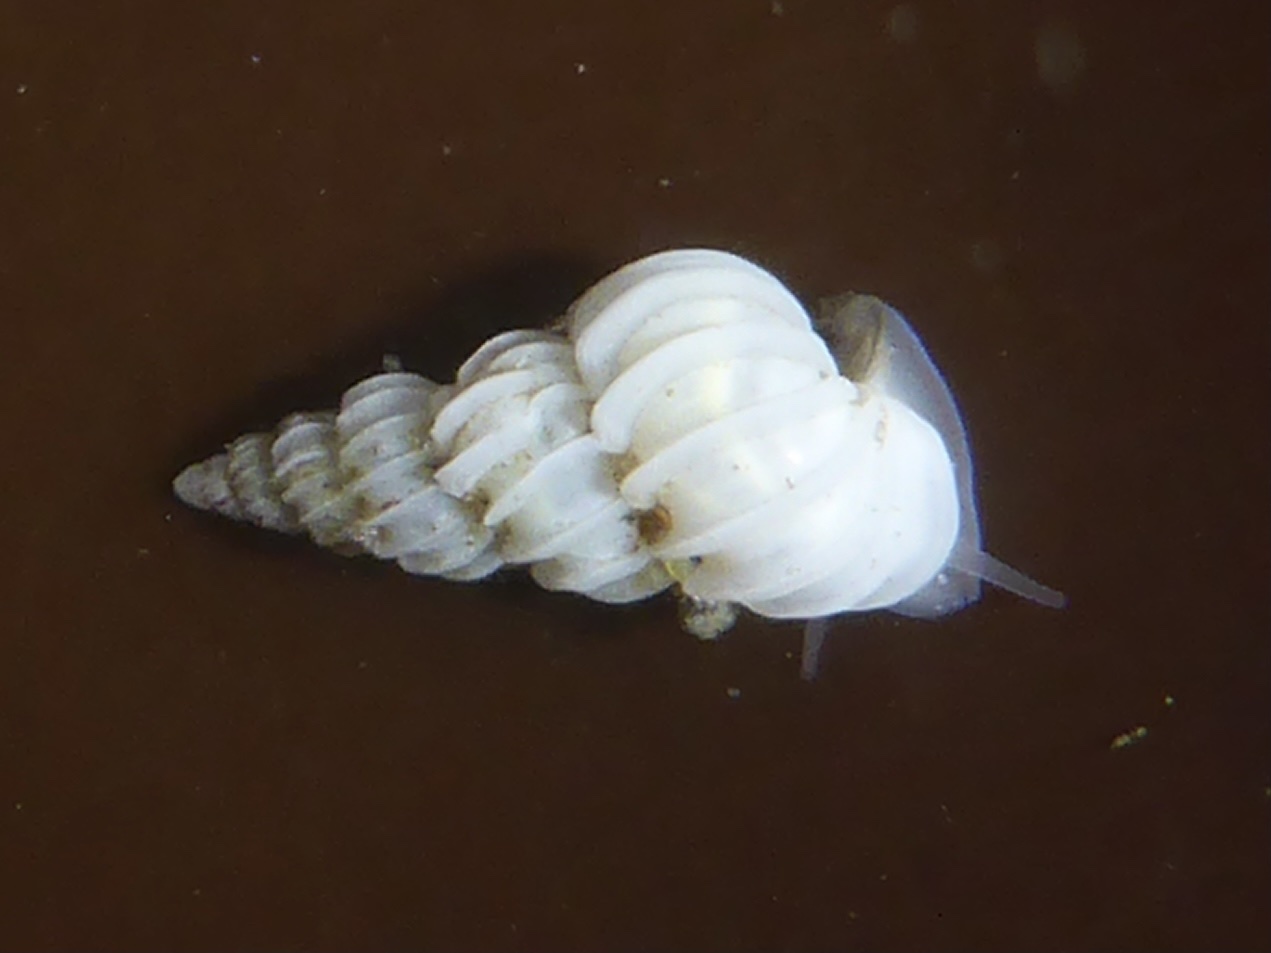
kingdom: Animalia
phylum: Mollusca
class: Gastropoda
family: Epitoniidae
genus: Epitonium
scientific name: Epitonium tinctum
